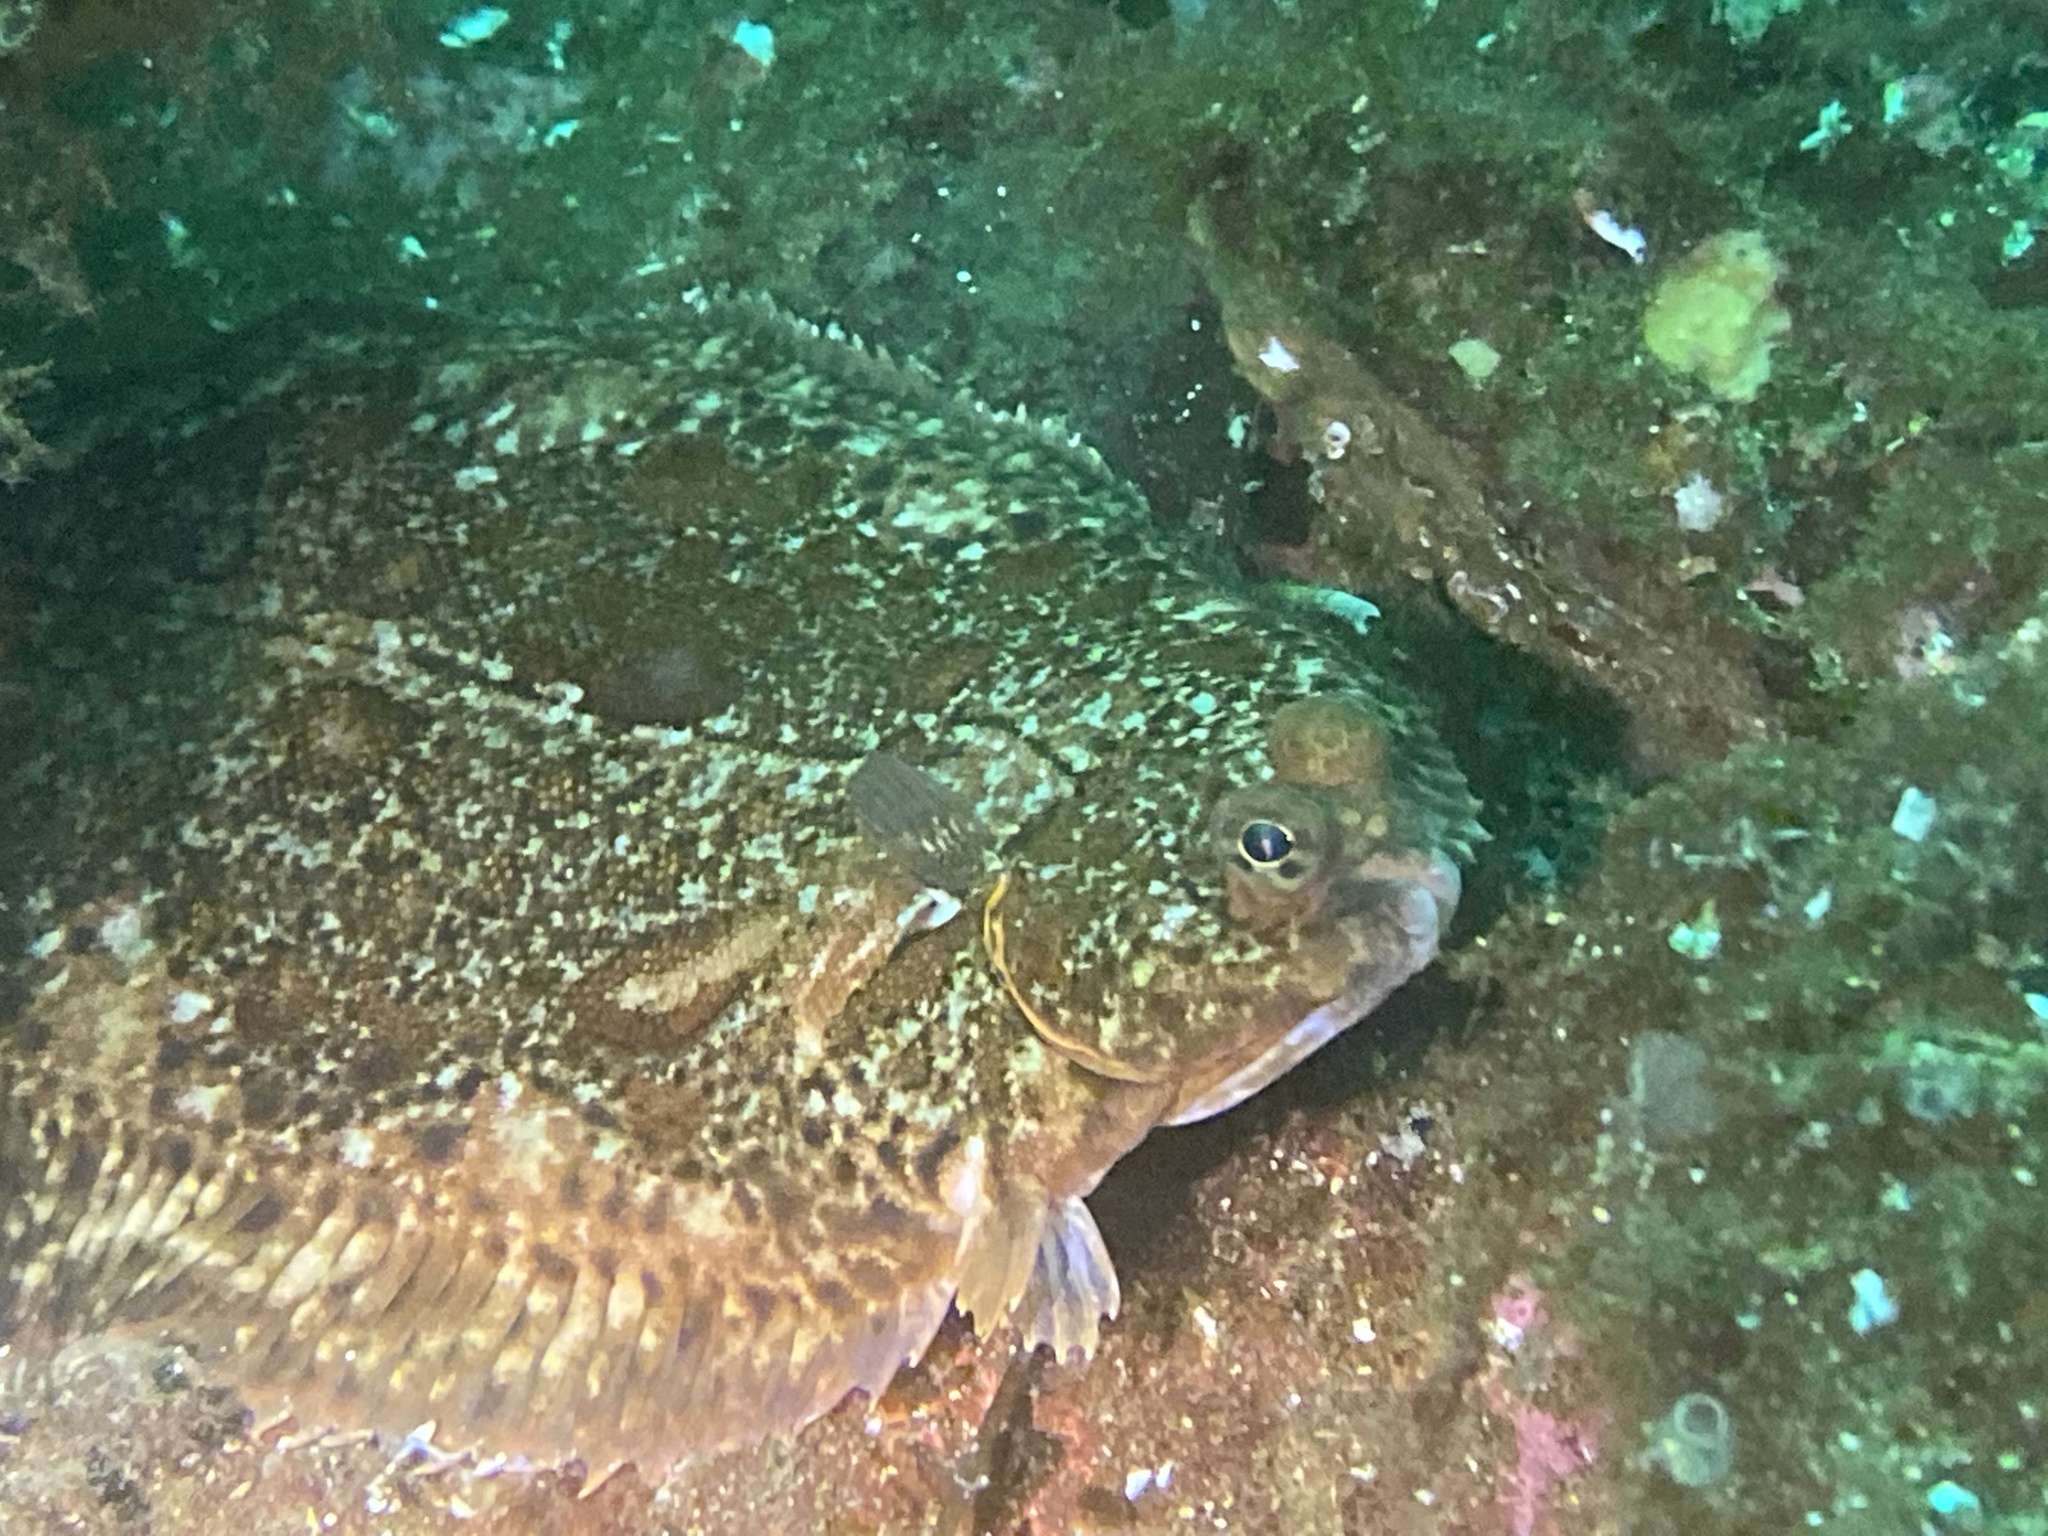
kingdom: Animalia
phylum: Chordata
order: Pleuronectiformes
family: Pleuronectidae
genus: Microstomus
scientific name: Microstomus kitt
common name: Lemon sole
